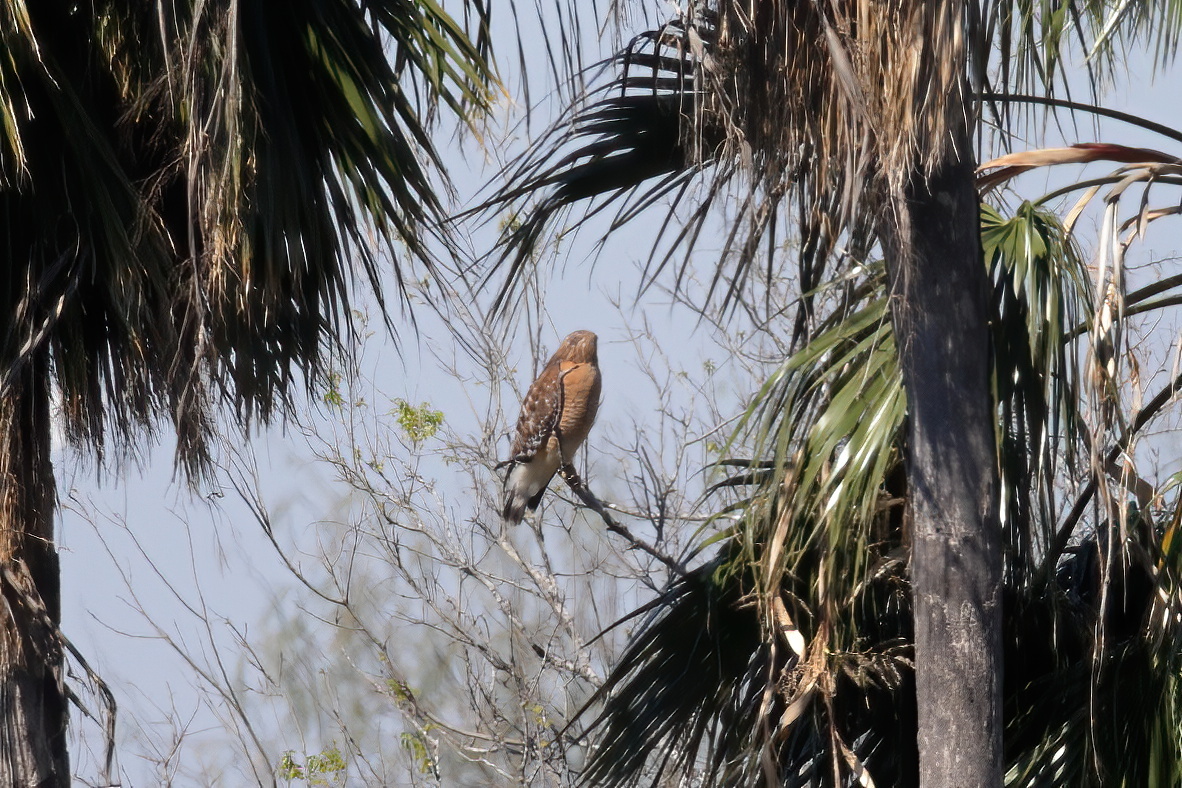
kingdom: Animalia
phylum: Chordata
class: Aves
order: Accipitriformes
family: Accipitridae
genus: Buteo
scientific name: Buteo lineatus
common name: Red-shouldered hawk
